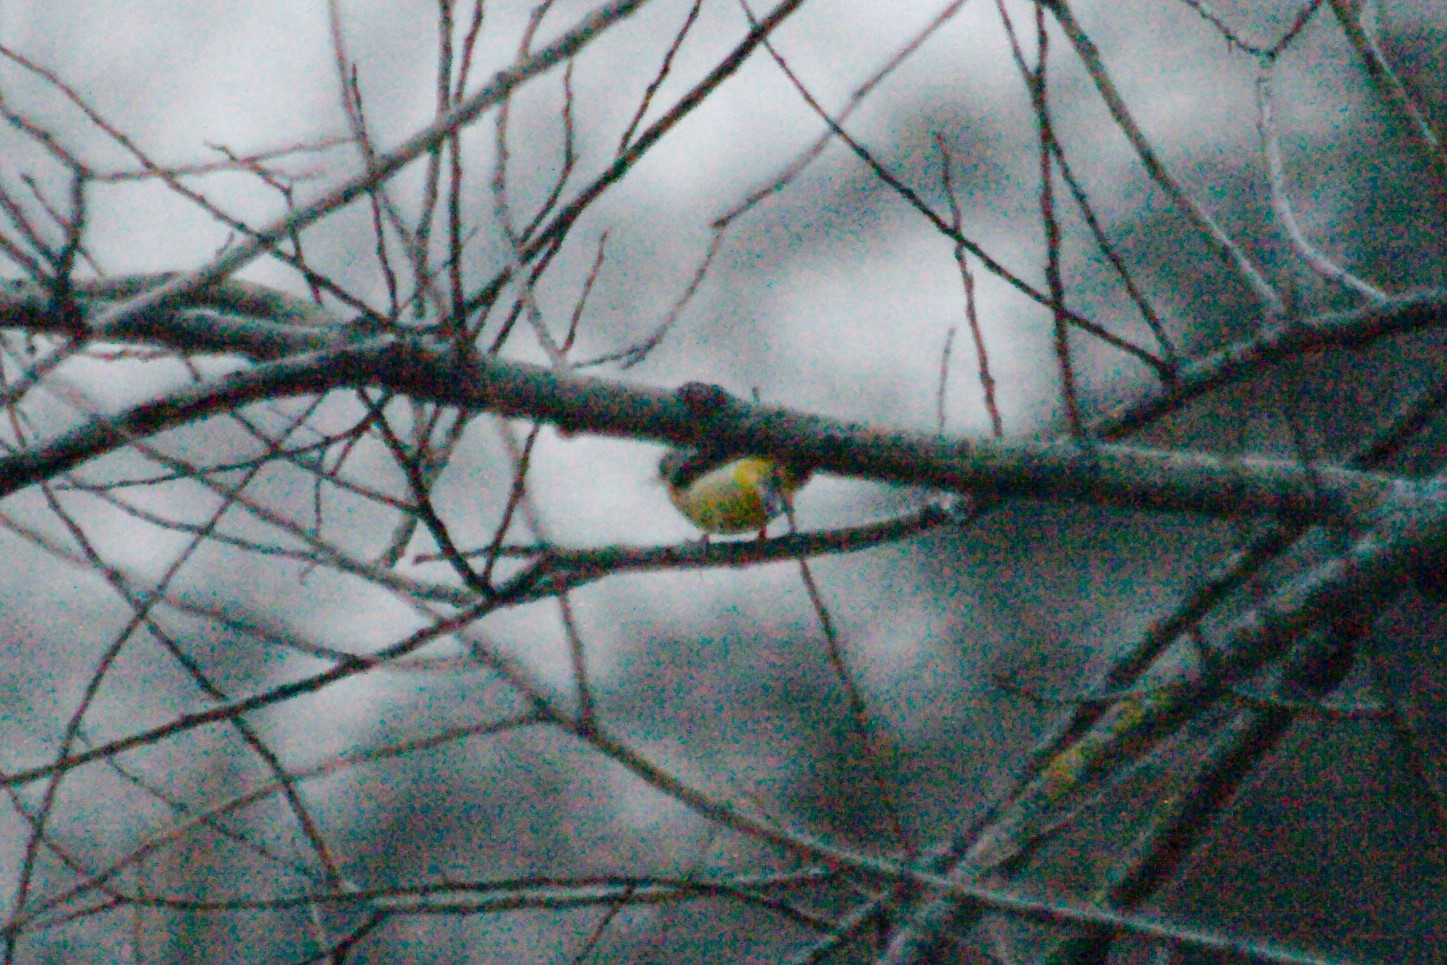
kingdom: Animalia
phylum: Chordata
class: Aves
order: Passeriformes
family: Motacillidae
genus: Motacilla
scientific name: Motacilla cinerea
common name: Grey wagtail
